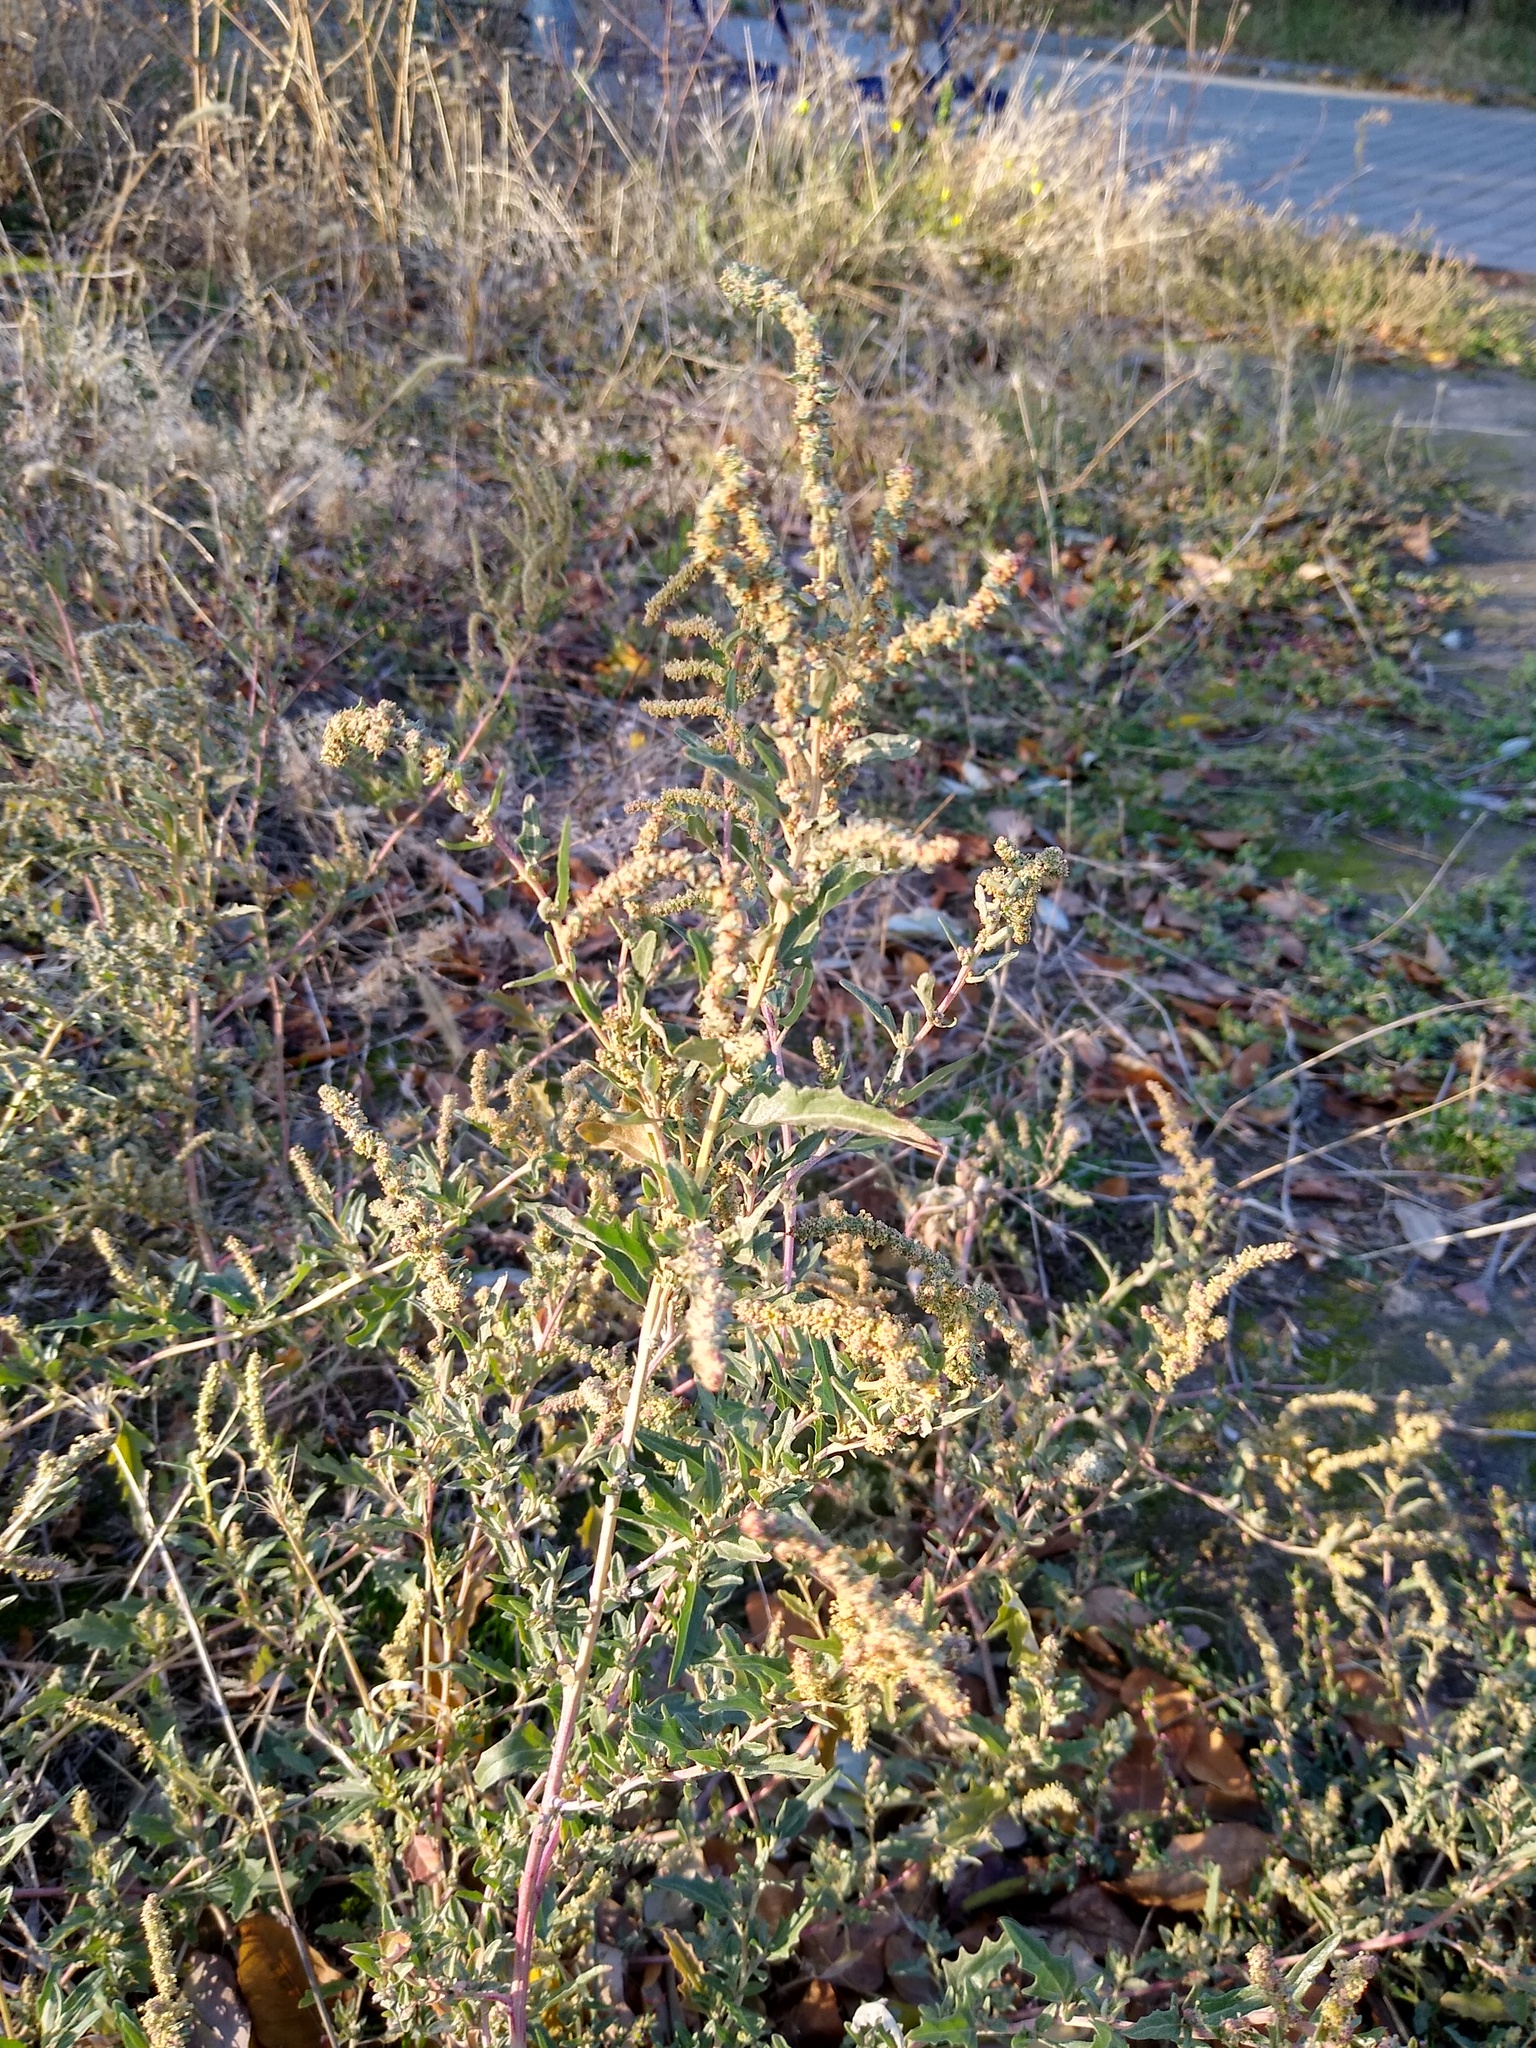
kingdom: Plantae
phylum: Tracheophyta
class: Magnoliopsida
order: Caryophyllales
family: Amaranthaceae
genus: Atriplex
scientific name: Atriplex tatarica
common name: Tatarian orache
